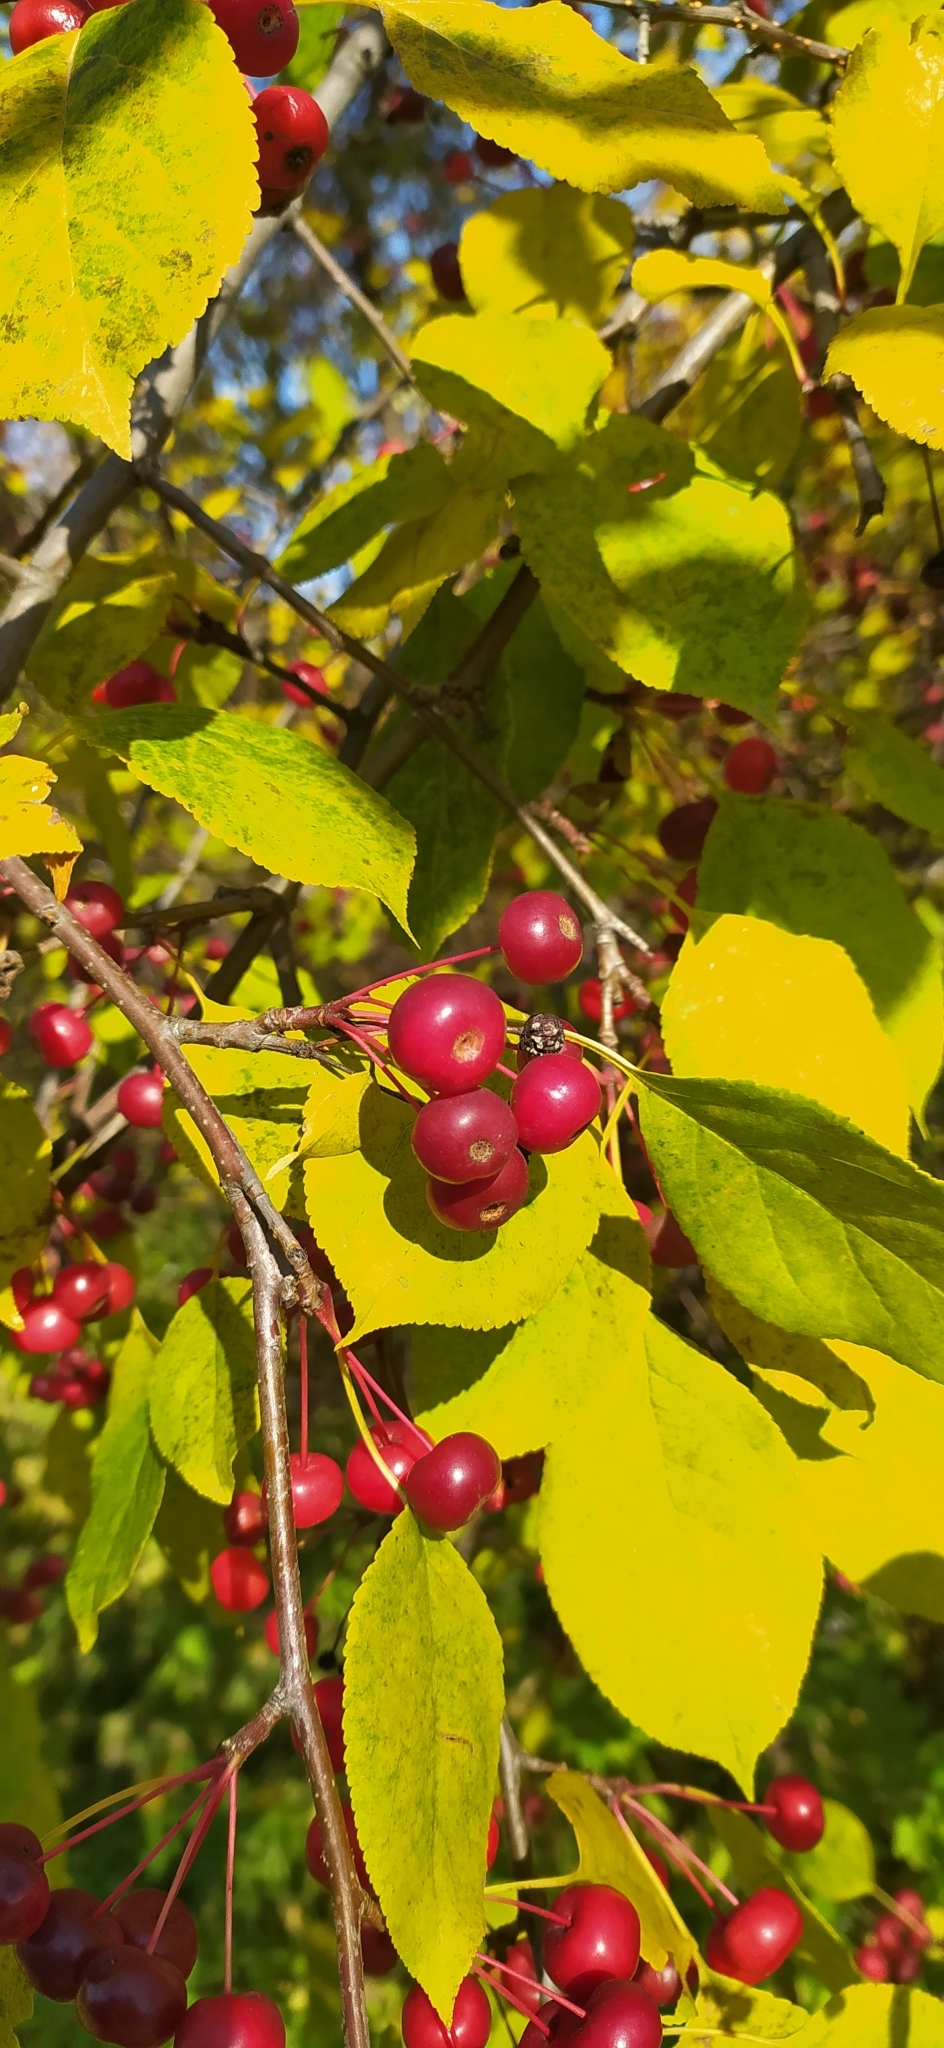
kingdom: Plantae
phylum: Tracheophyta
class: Magnoliopsida
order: Rosales
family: Rosaceae
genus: Malus
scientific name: Malus baccata
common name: Siberian crab
